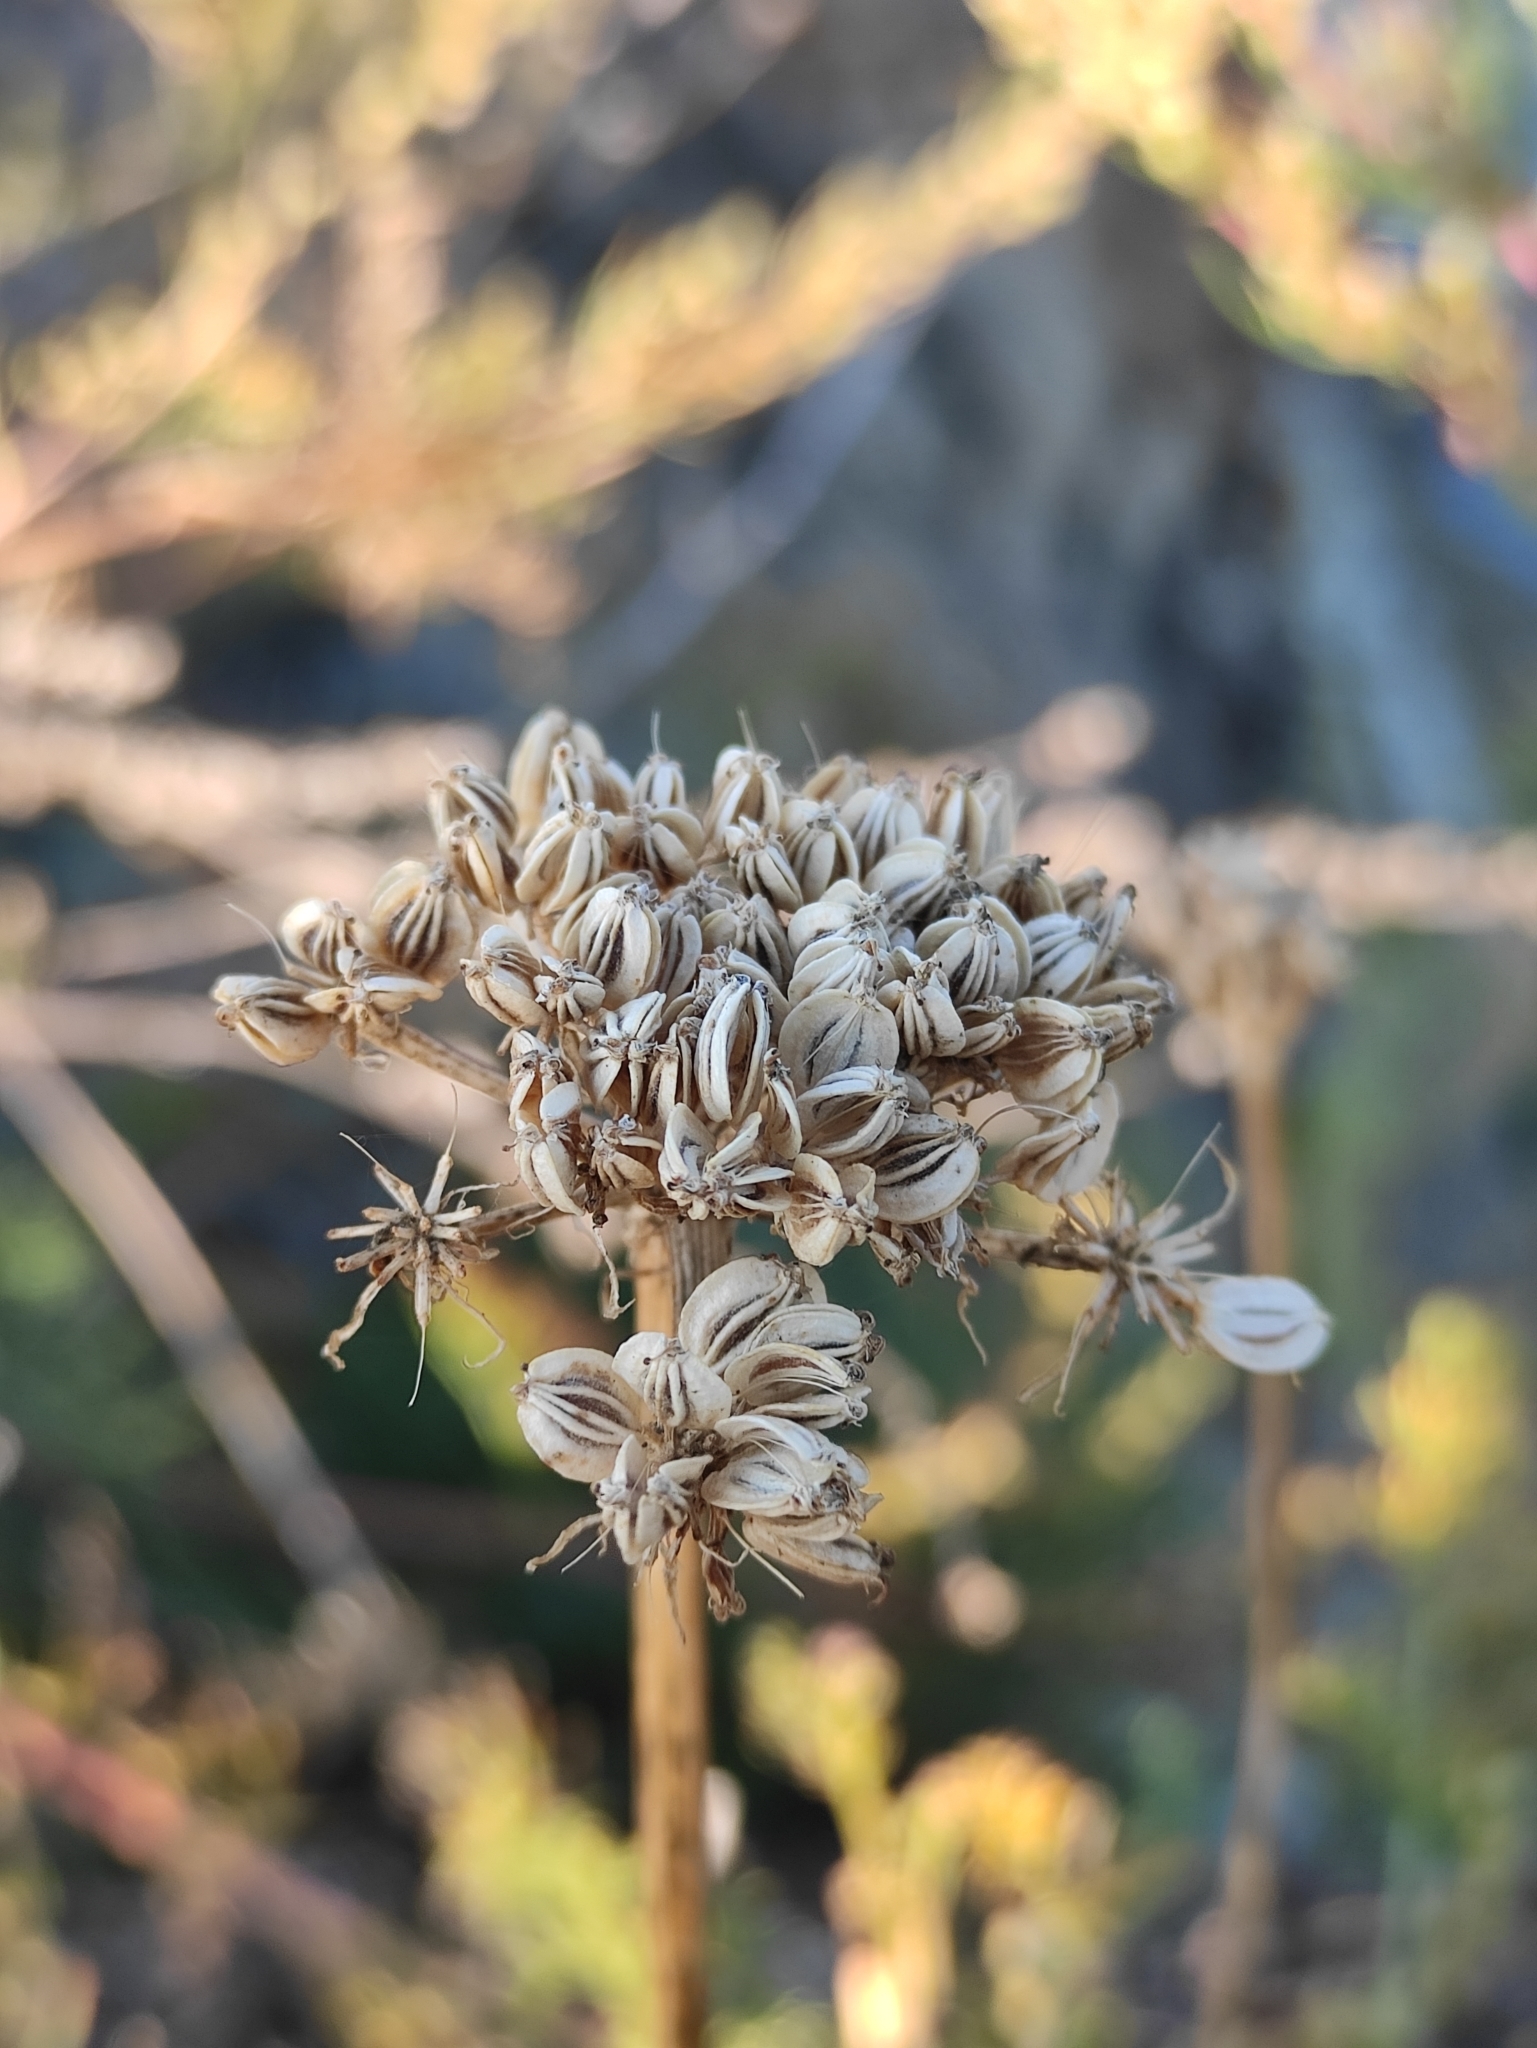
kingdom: Plantae
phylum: Tracheophyta
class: Magnoliopsida
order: Apiales
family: Apiaceae
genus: Ferulopsis
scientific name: Ferulopsis hystrix
